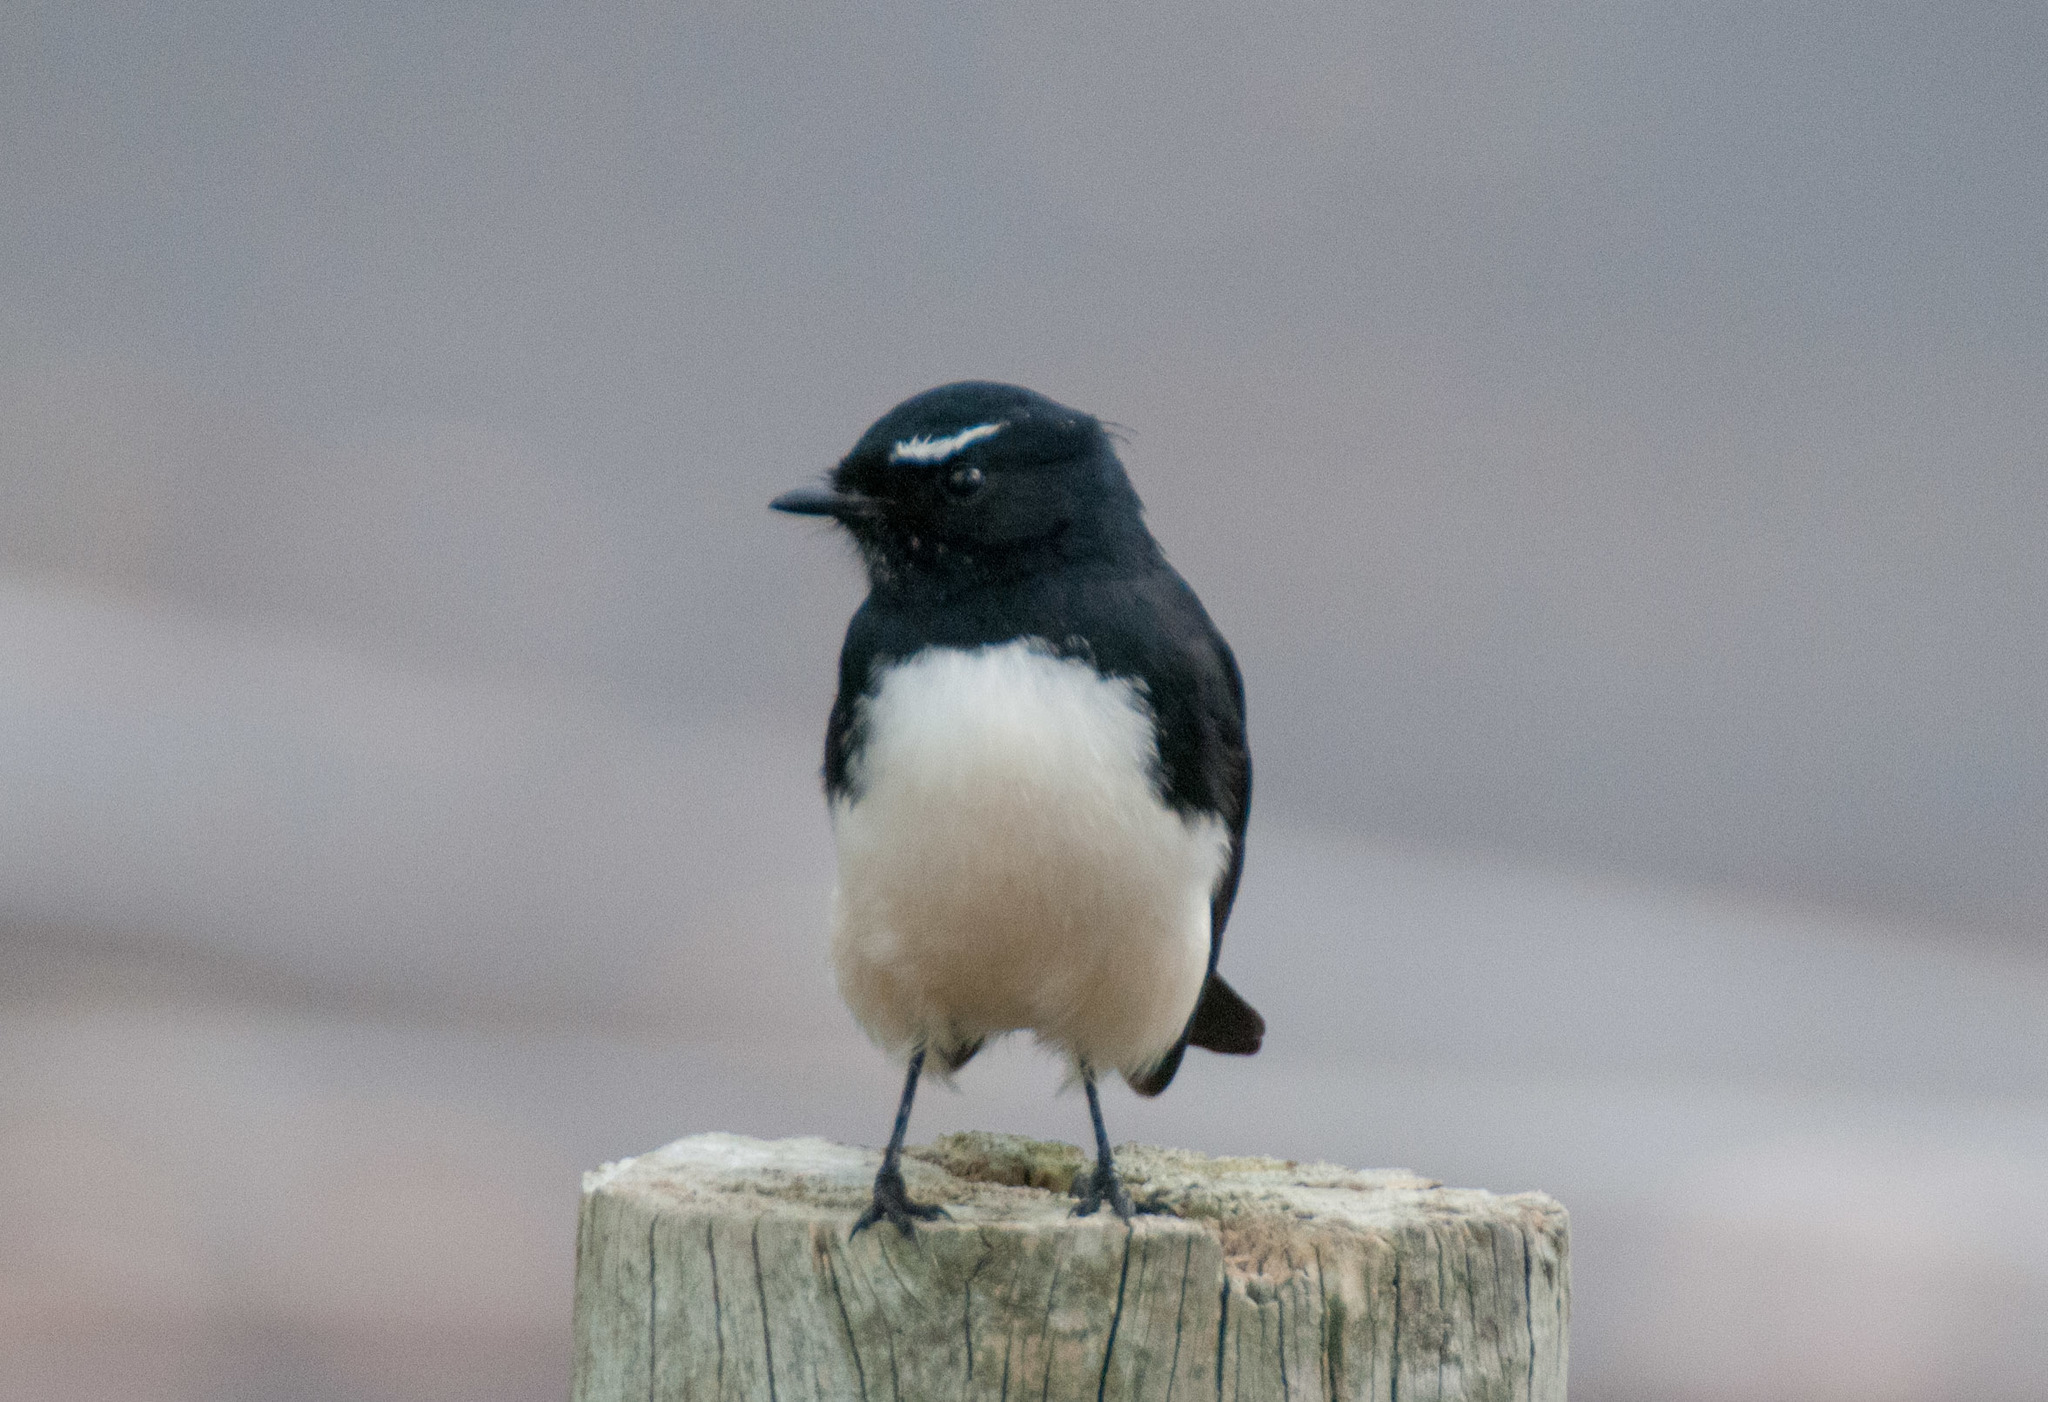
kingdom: Animalia
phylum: Chordata
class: Aves
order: Passeriformes
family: Rhipiduridae
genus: Rhipidura
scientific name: Rhipidura leucophrys
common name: Willie wagtail
